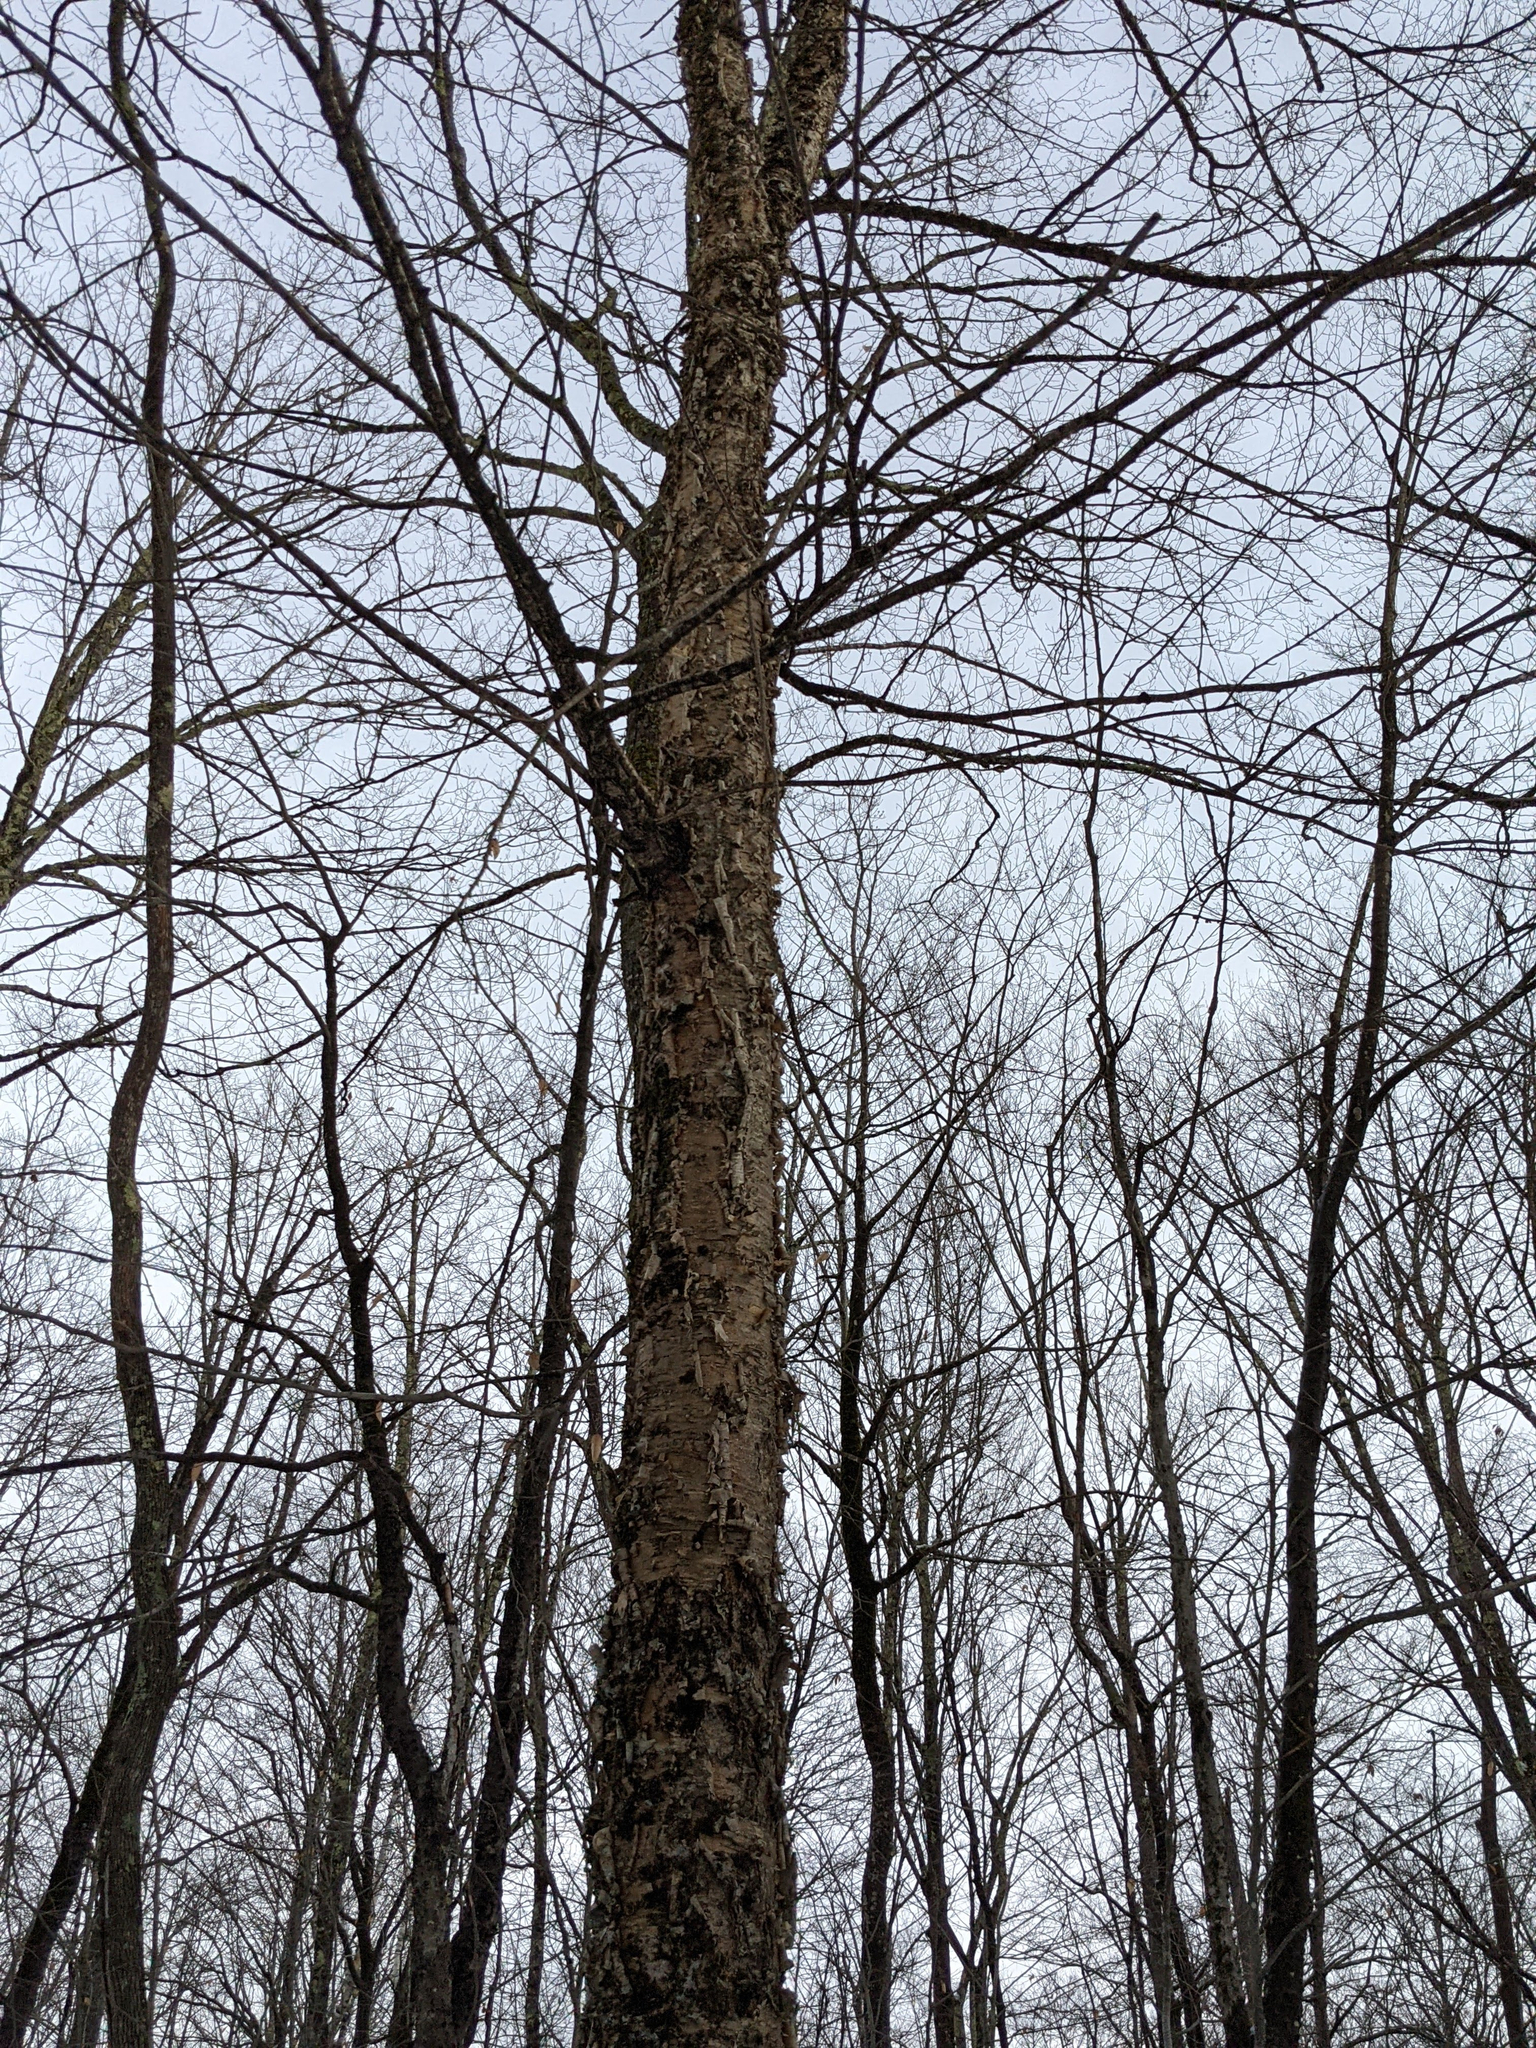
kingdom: Plantae
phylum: Tracheophyta
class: Magnoliopsida
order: Fagales
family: Betulaceae
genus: Betula
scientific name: Betula alleghaniensis
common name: Yellow birch
